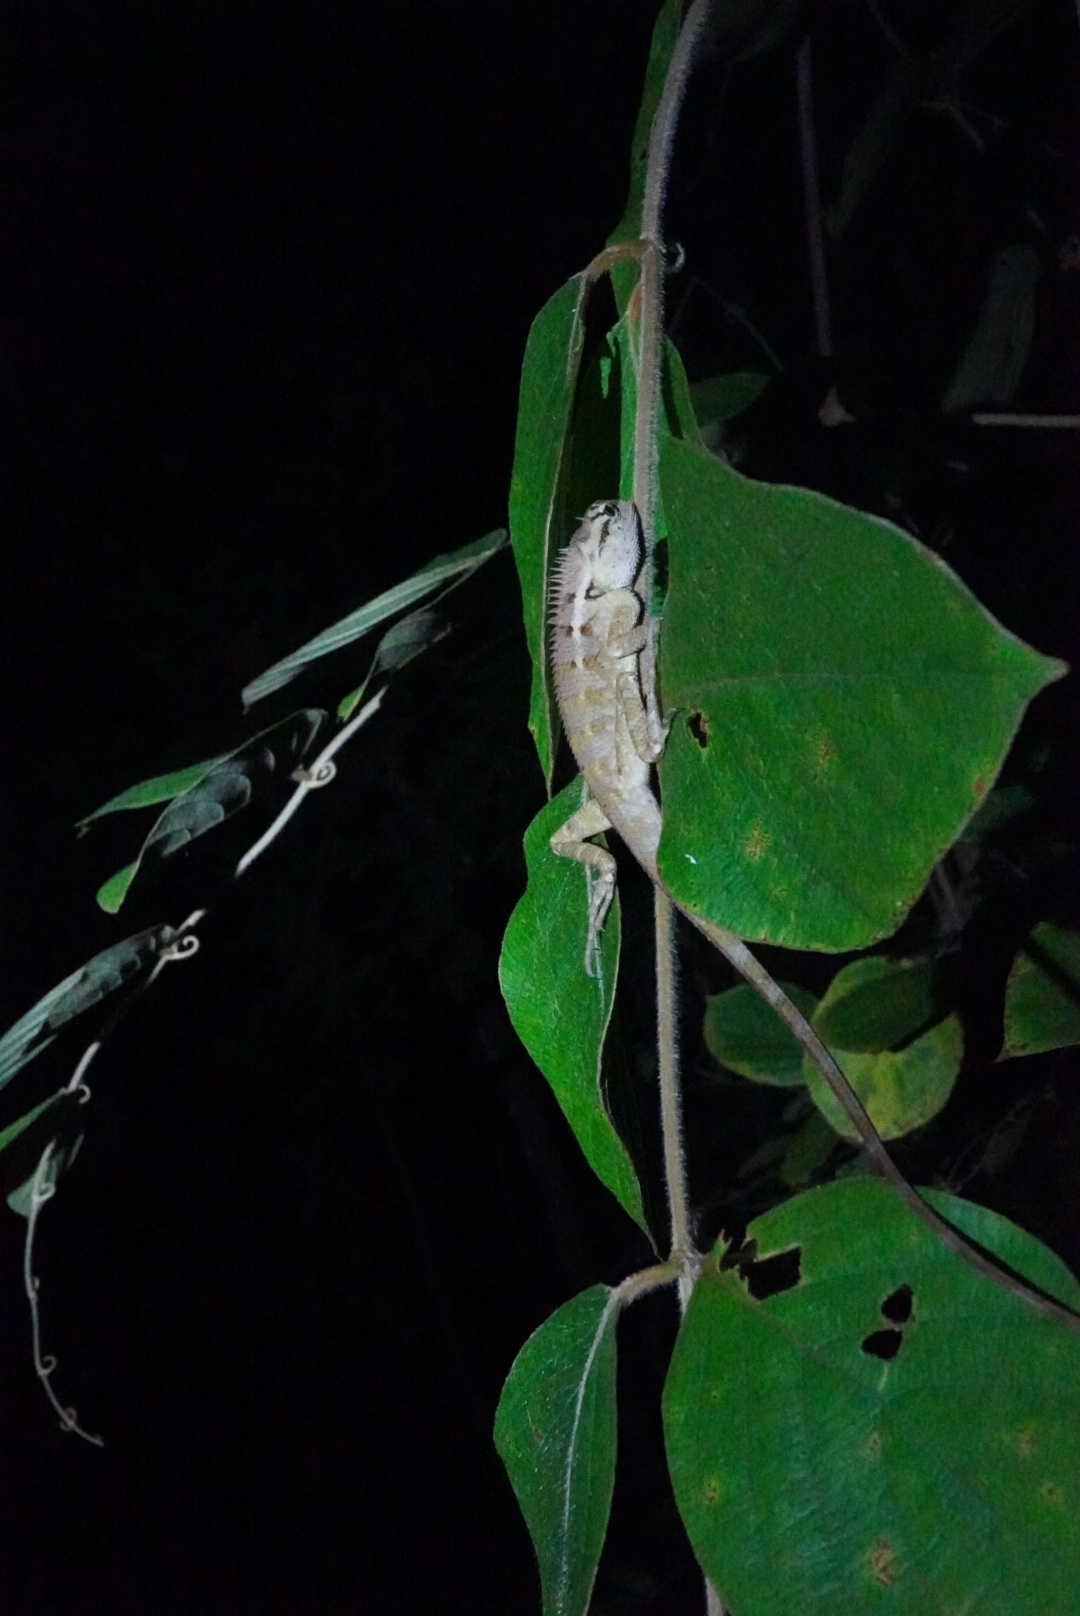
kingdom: Animalia
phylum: Chordata
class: Squamata
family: Agamidae
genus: Calotes
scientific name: Calotes emma
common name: Thailand bloodsucker
